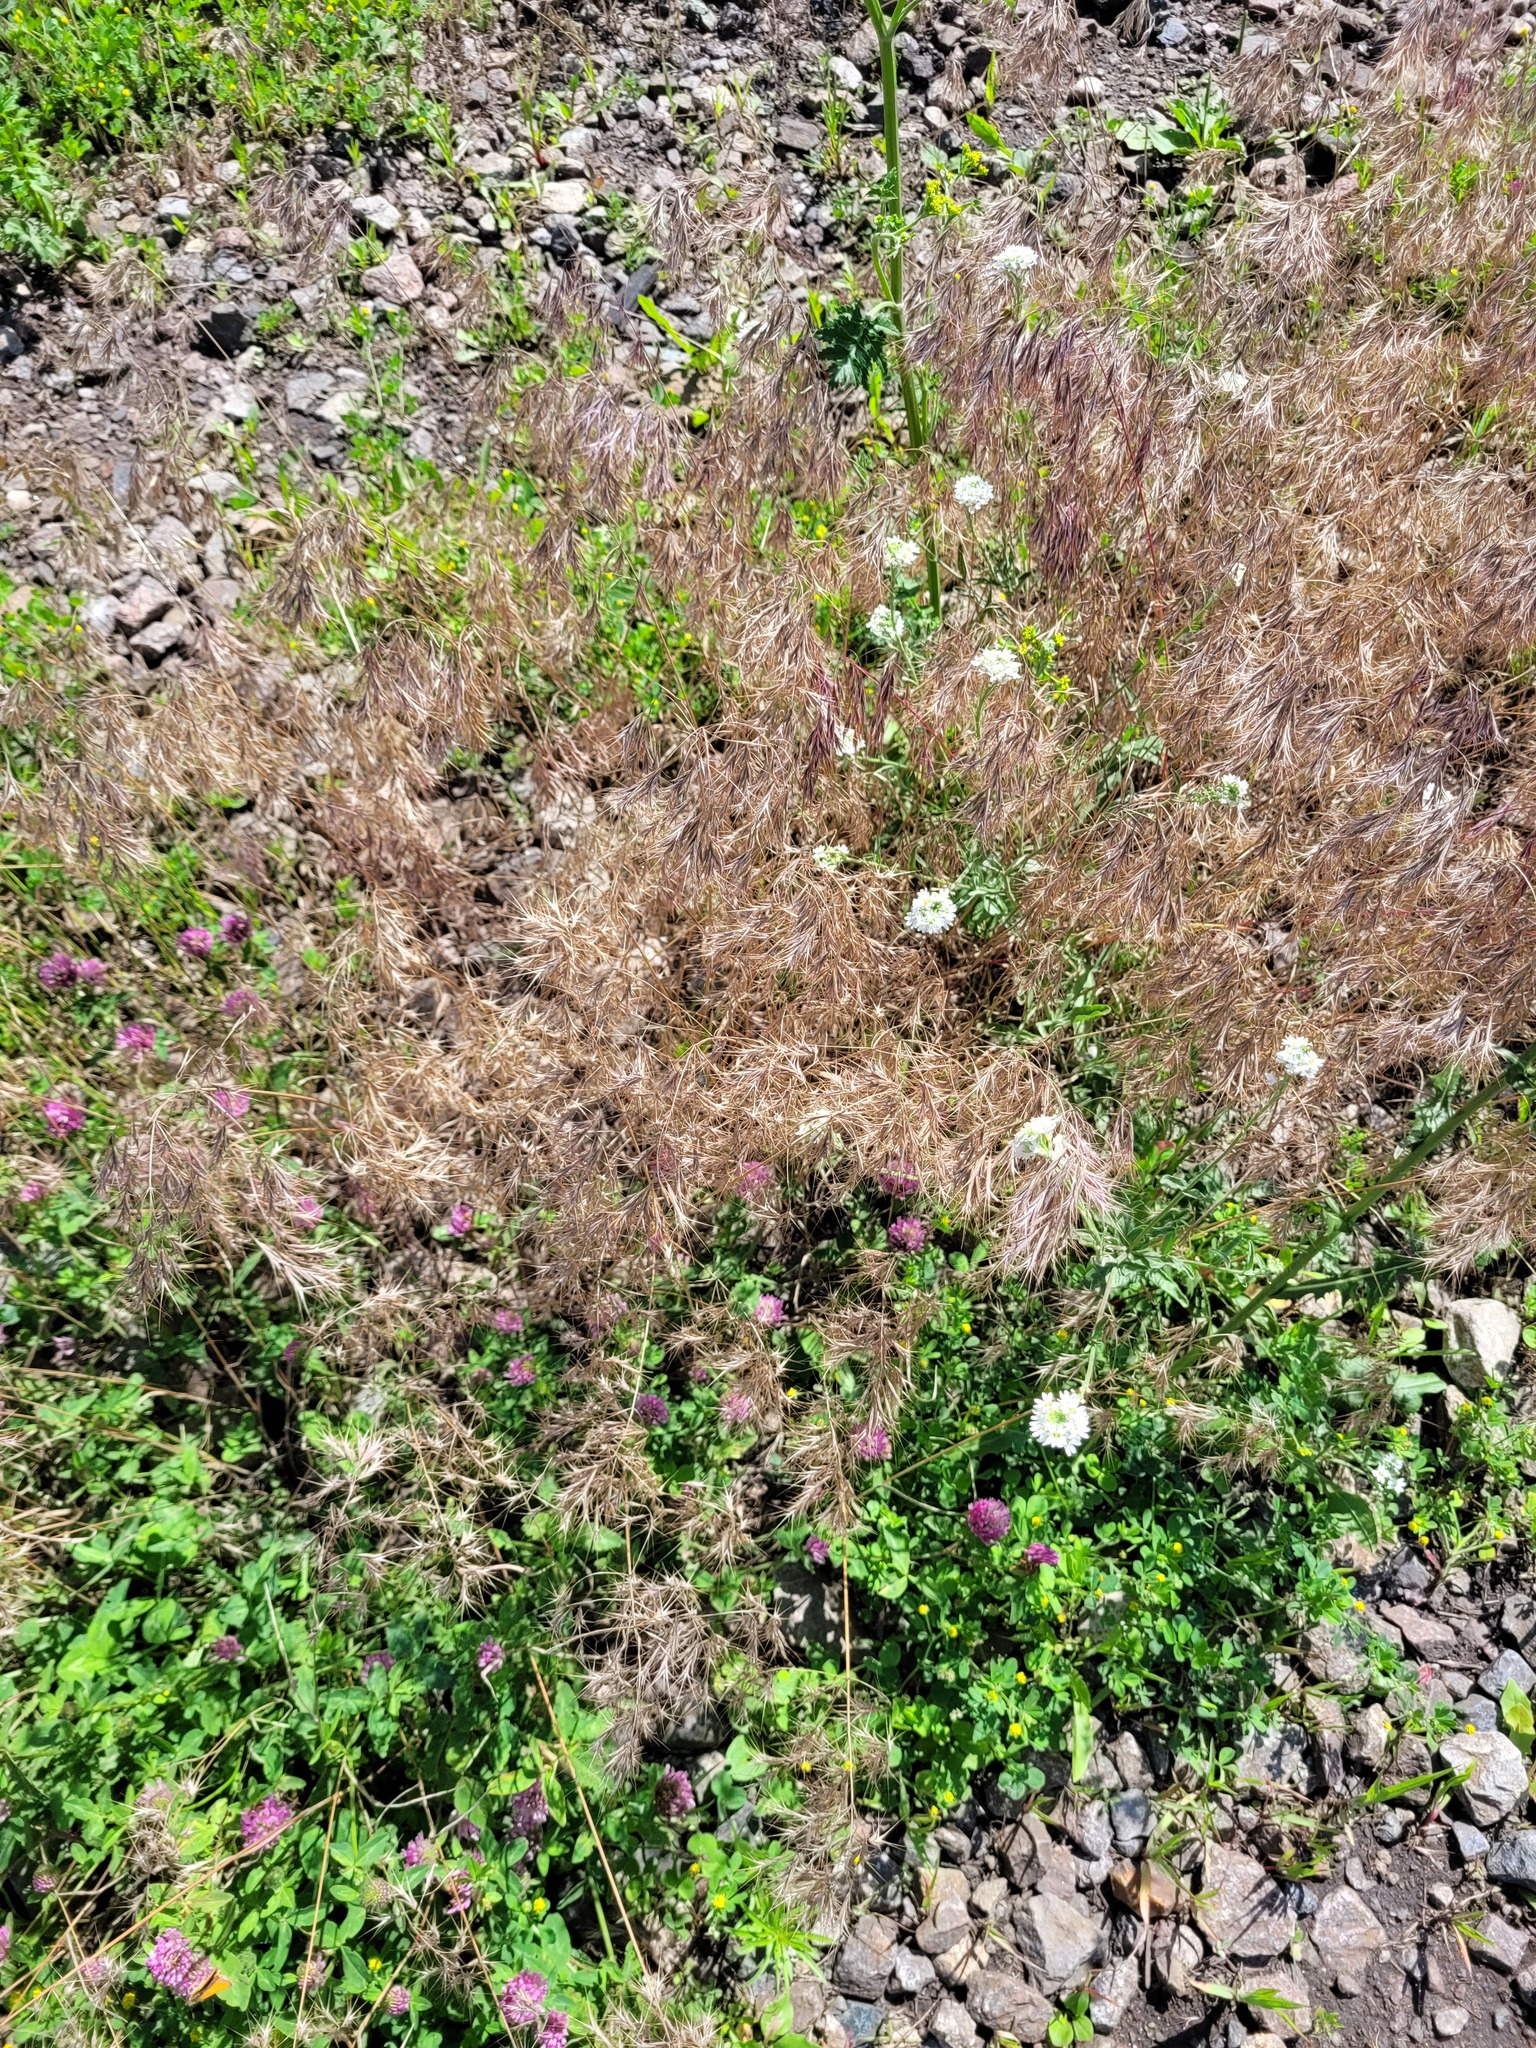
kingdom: Plantae
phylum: Tracheophyta
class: Liliopsida
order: Poales
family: Poaceae
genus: Bromus
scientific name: Bromus tectorum
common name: Cheatgrass
